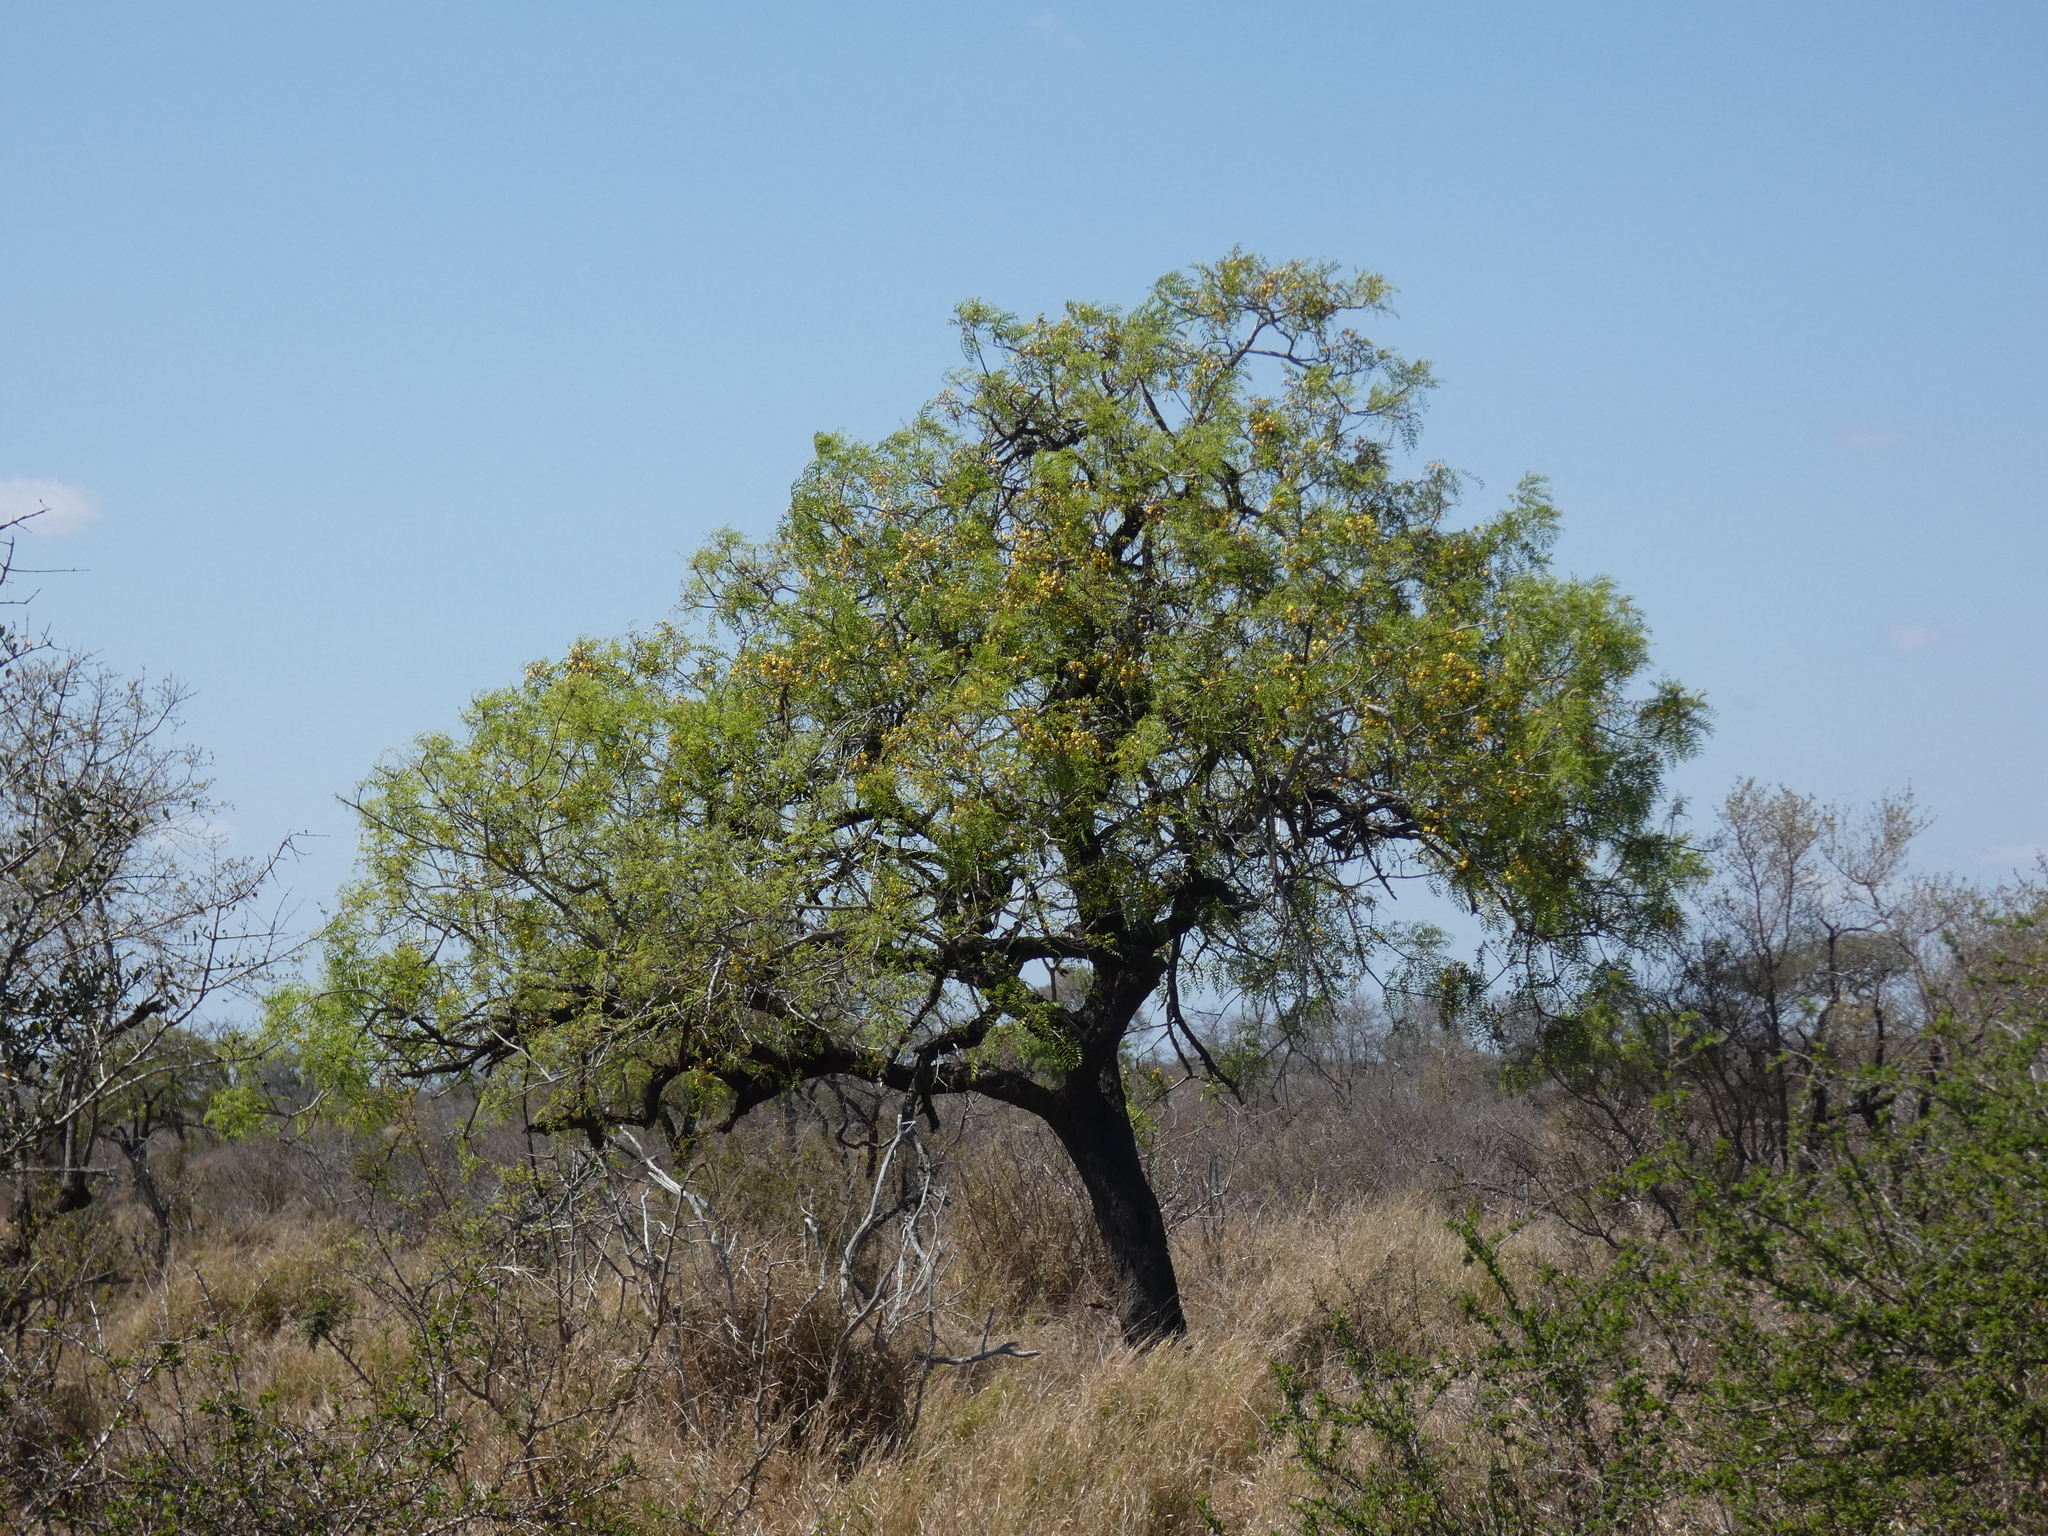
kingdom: Plantae
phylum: Tracheophyta
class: Magnoliopsida
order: Fabales
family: Fabaceae
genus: Cassia
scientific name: Cassia abbreviata
